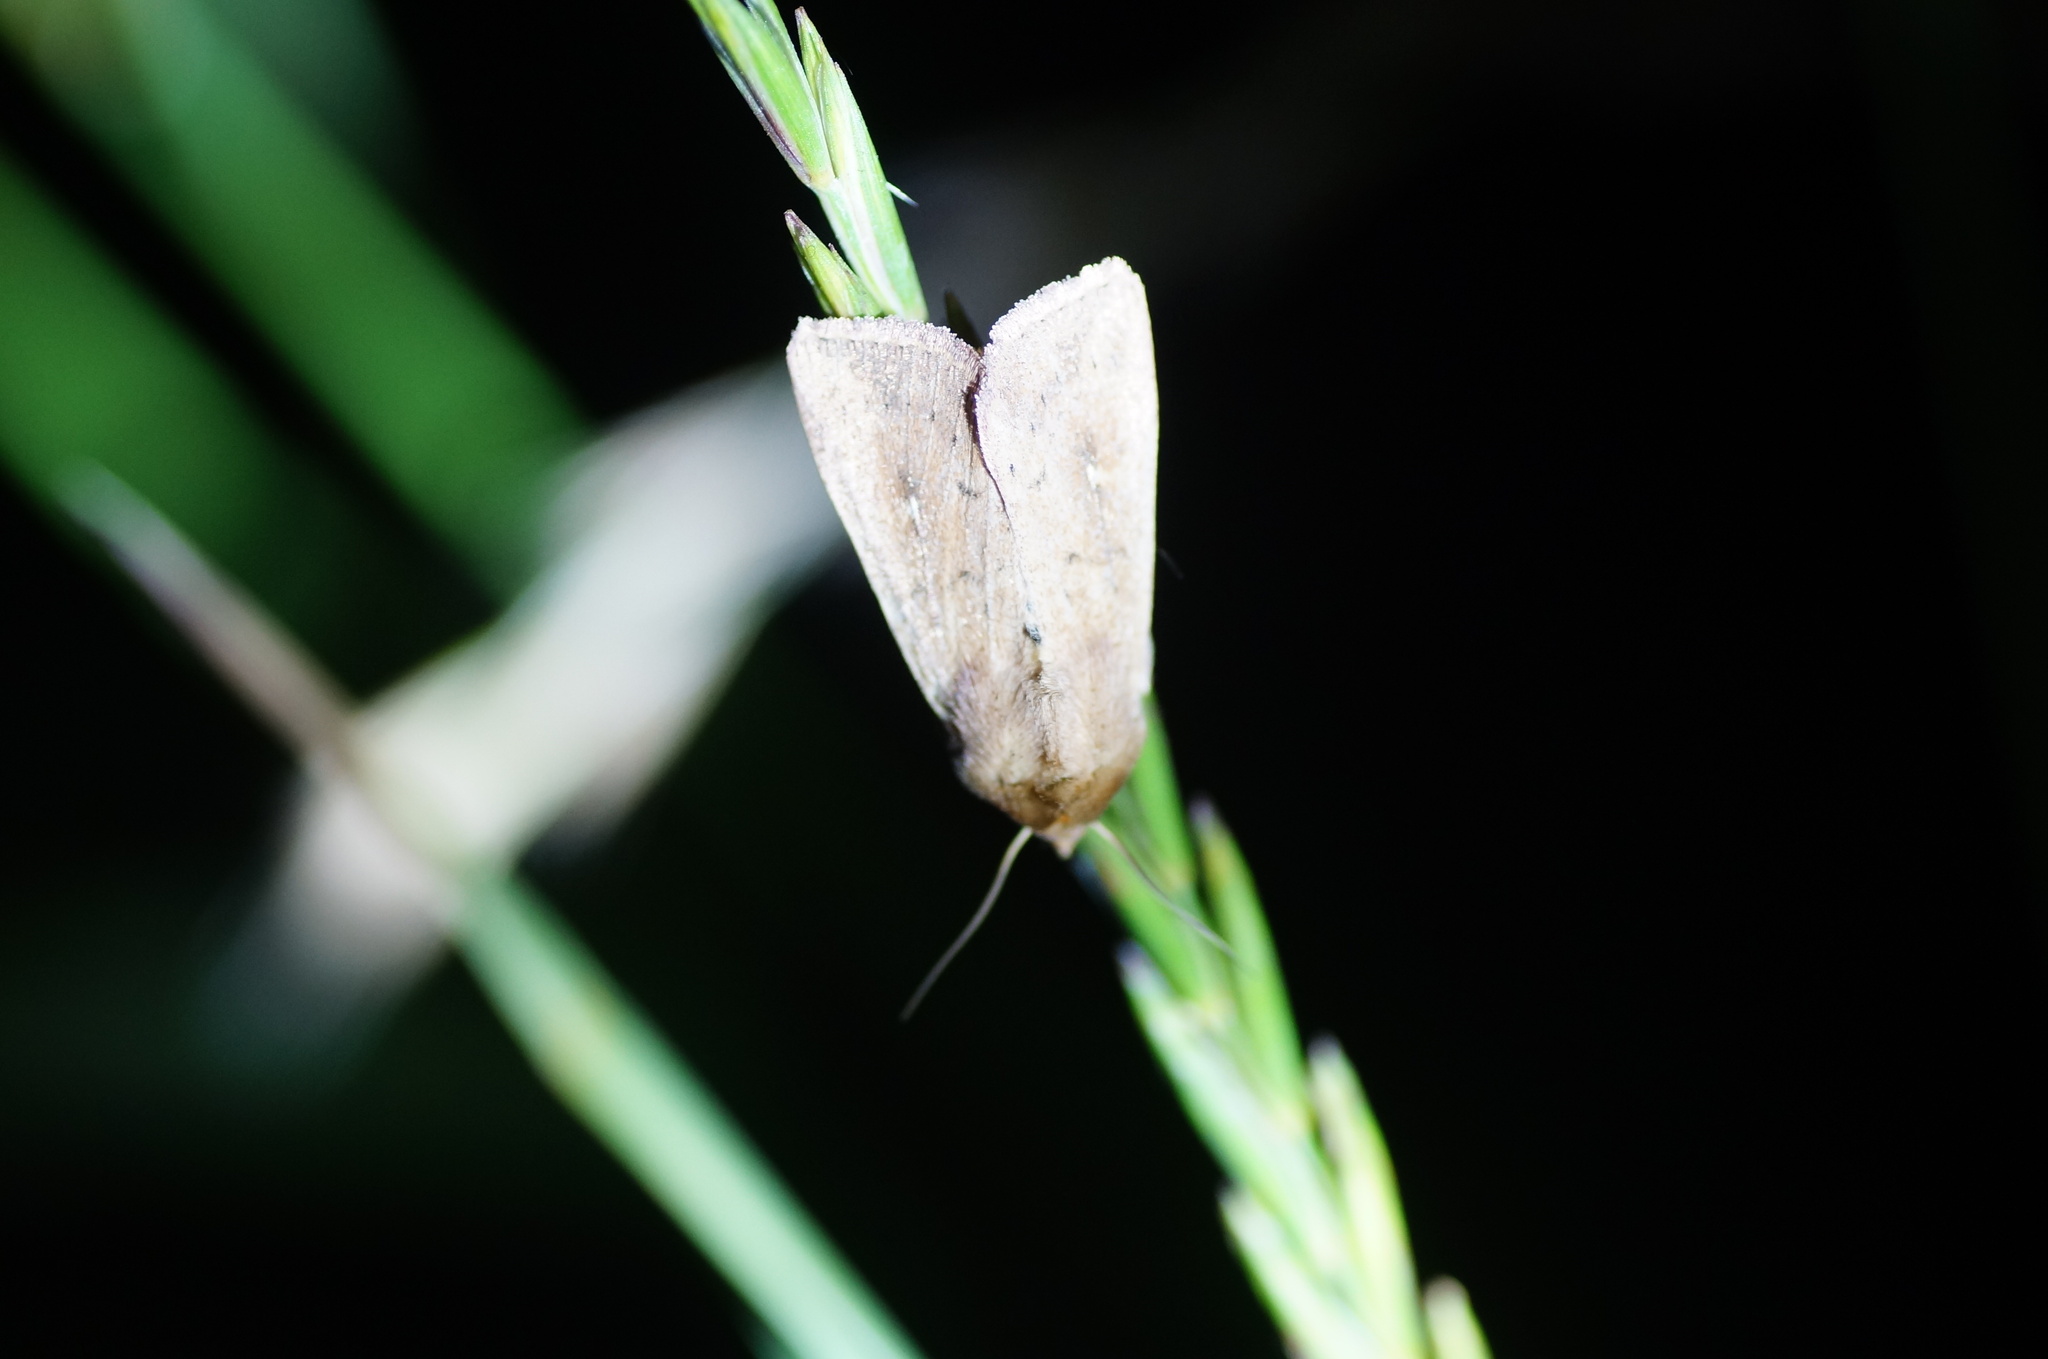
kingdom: Animalia
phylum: Arthropoda
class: Insecta
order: Lepidoptera
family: Noctuidae
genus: Mythimna
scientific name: Mythimna ferrago
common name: Clay
